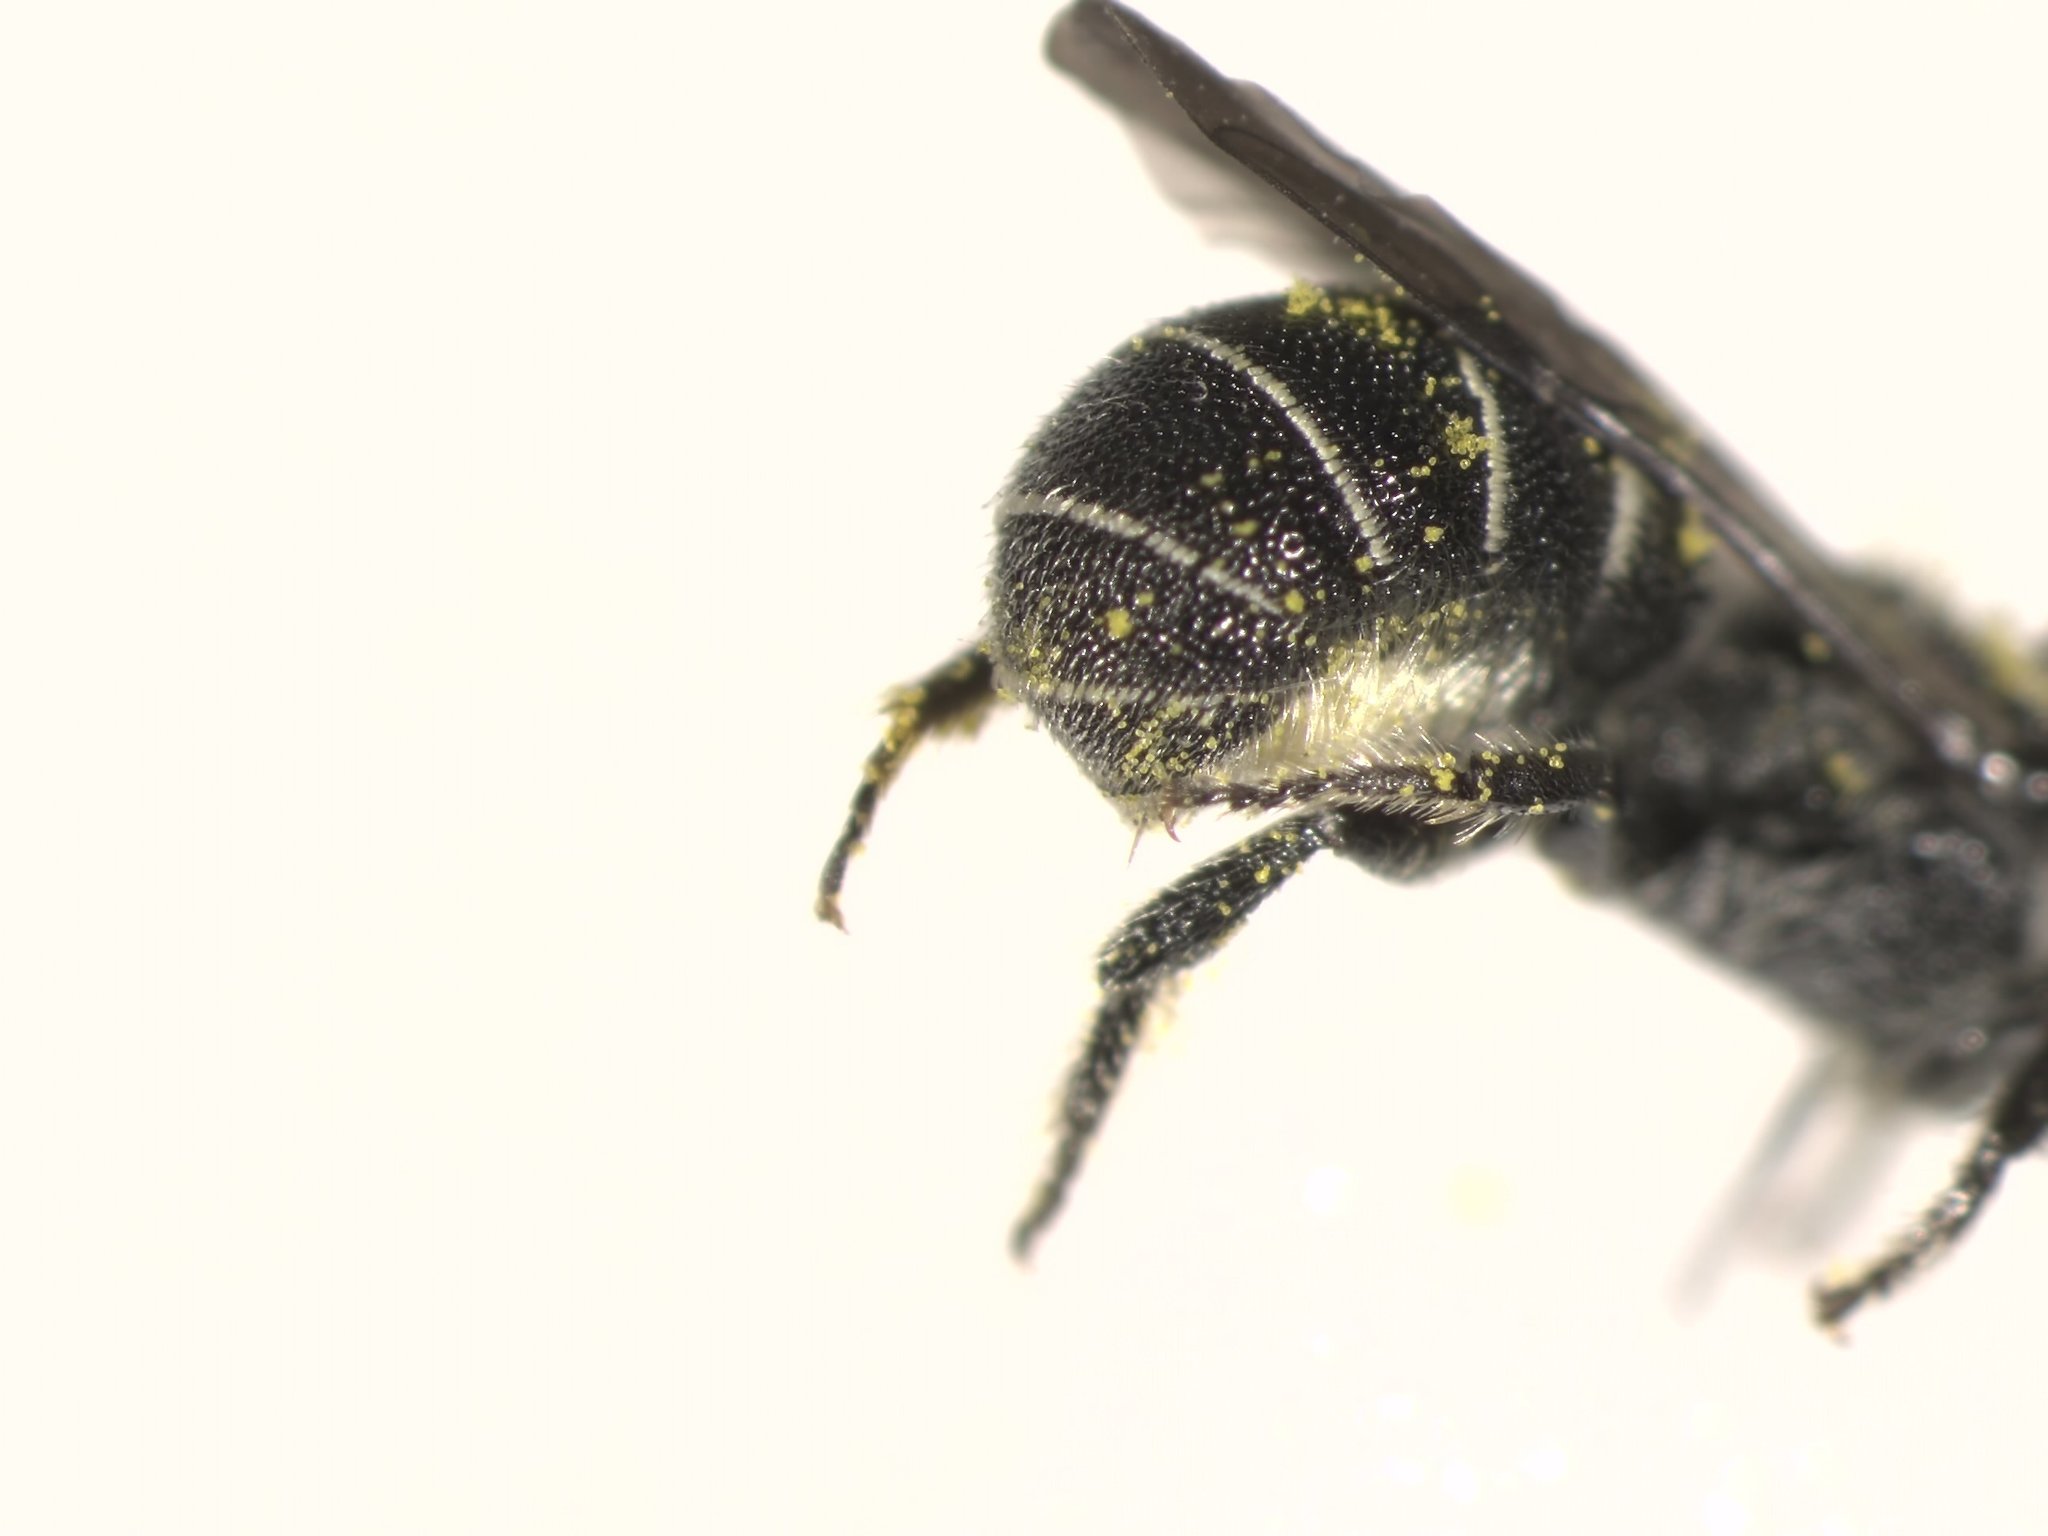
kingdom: Animalia
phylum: Arthropoda
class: Insecta
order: Hymenoptera
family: Megachilidae
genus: Heriades
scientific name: Heriades carinata
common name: Carinate armored-resin bee
